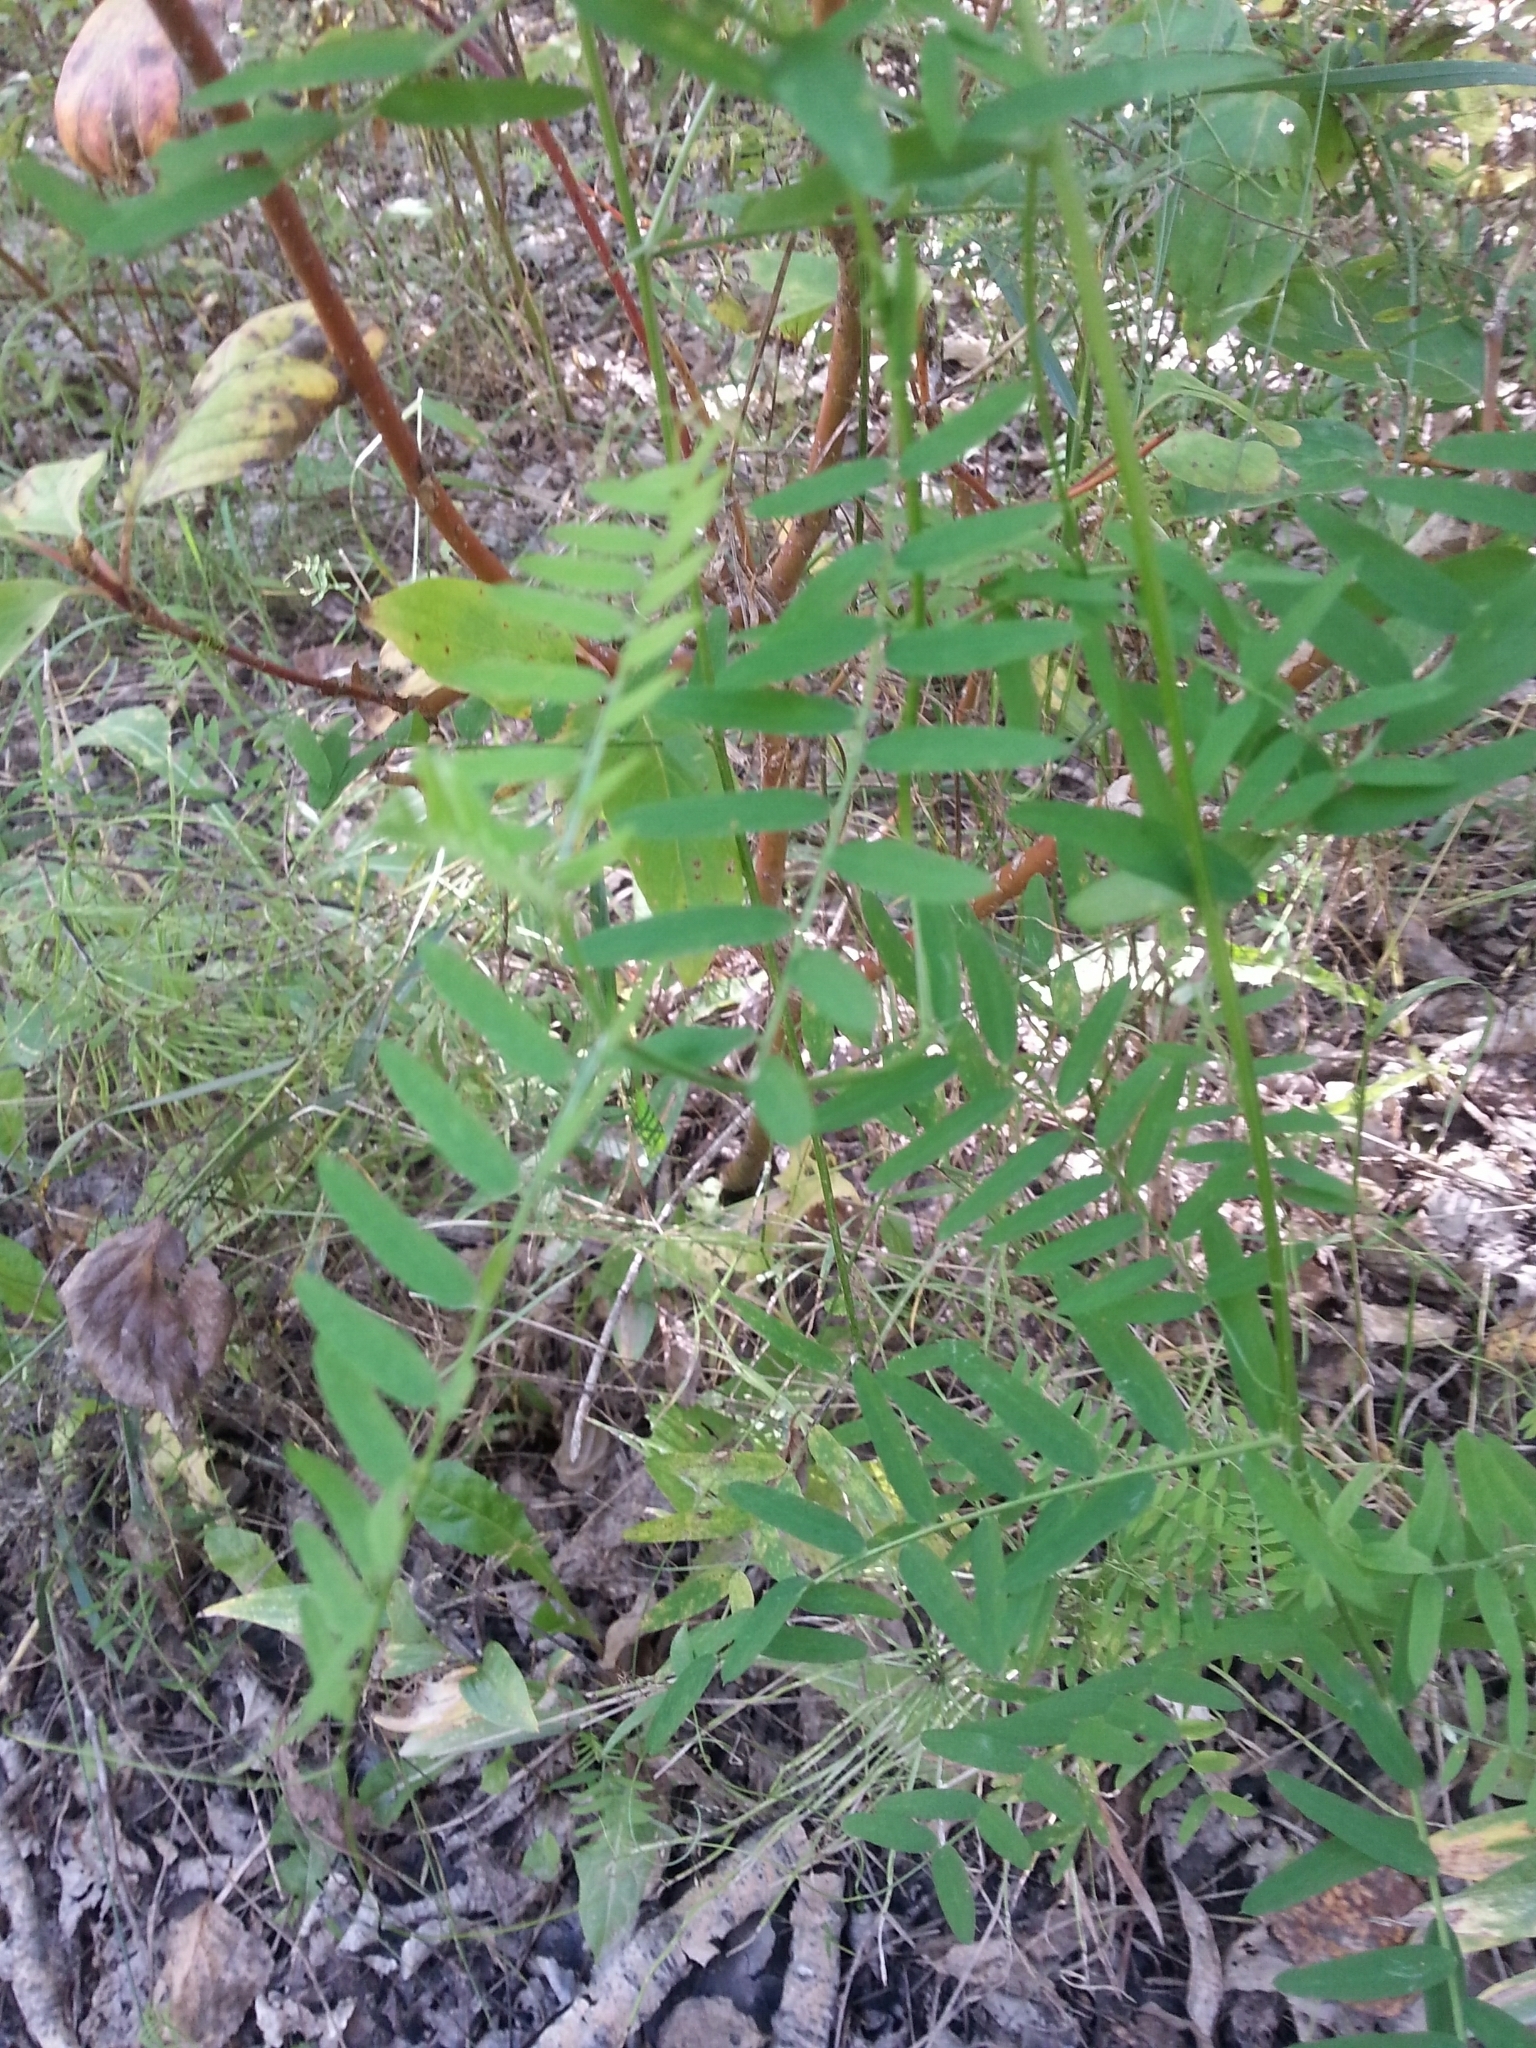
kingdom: Plantae
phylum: Tracheophyta
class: Magnoliopsida
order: Fabales
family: Fabaceae
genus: Vicia
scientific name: Vicia cracca
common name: Bird vetch
